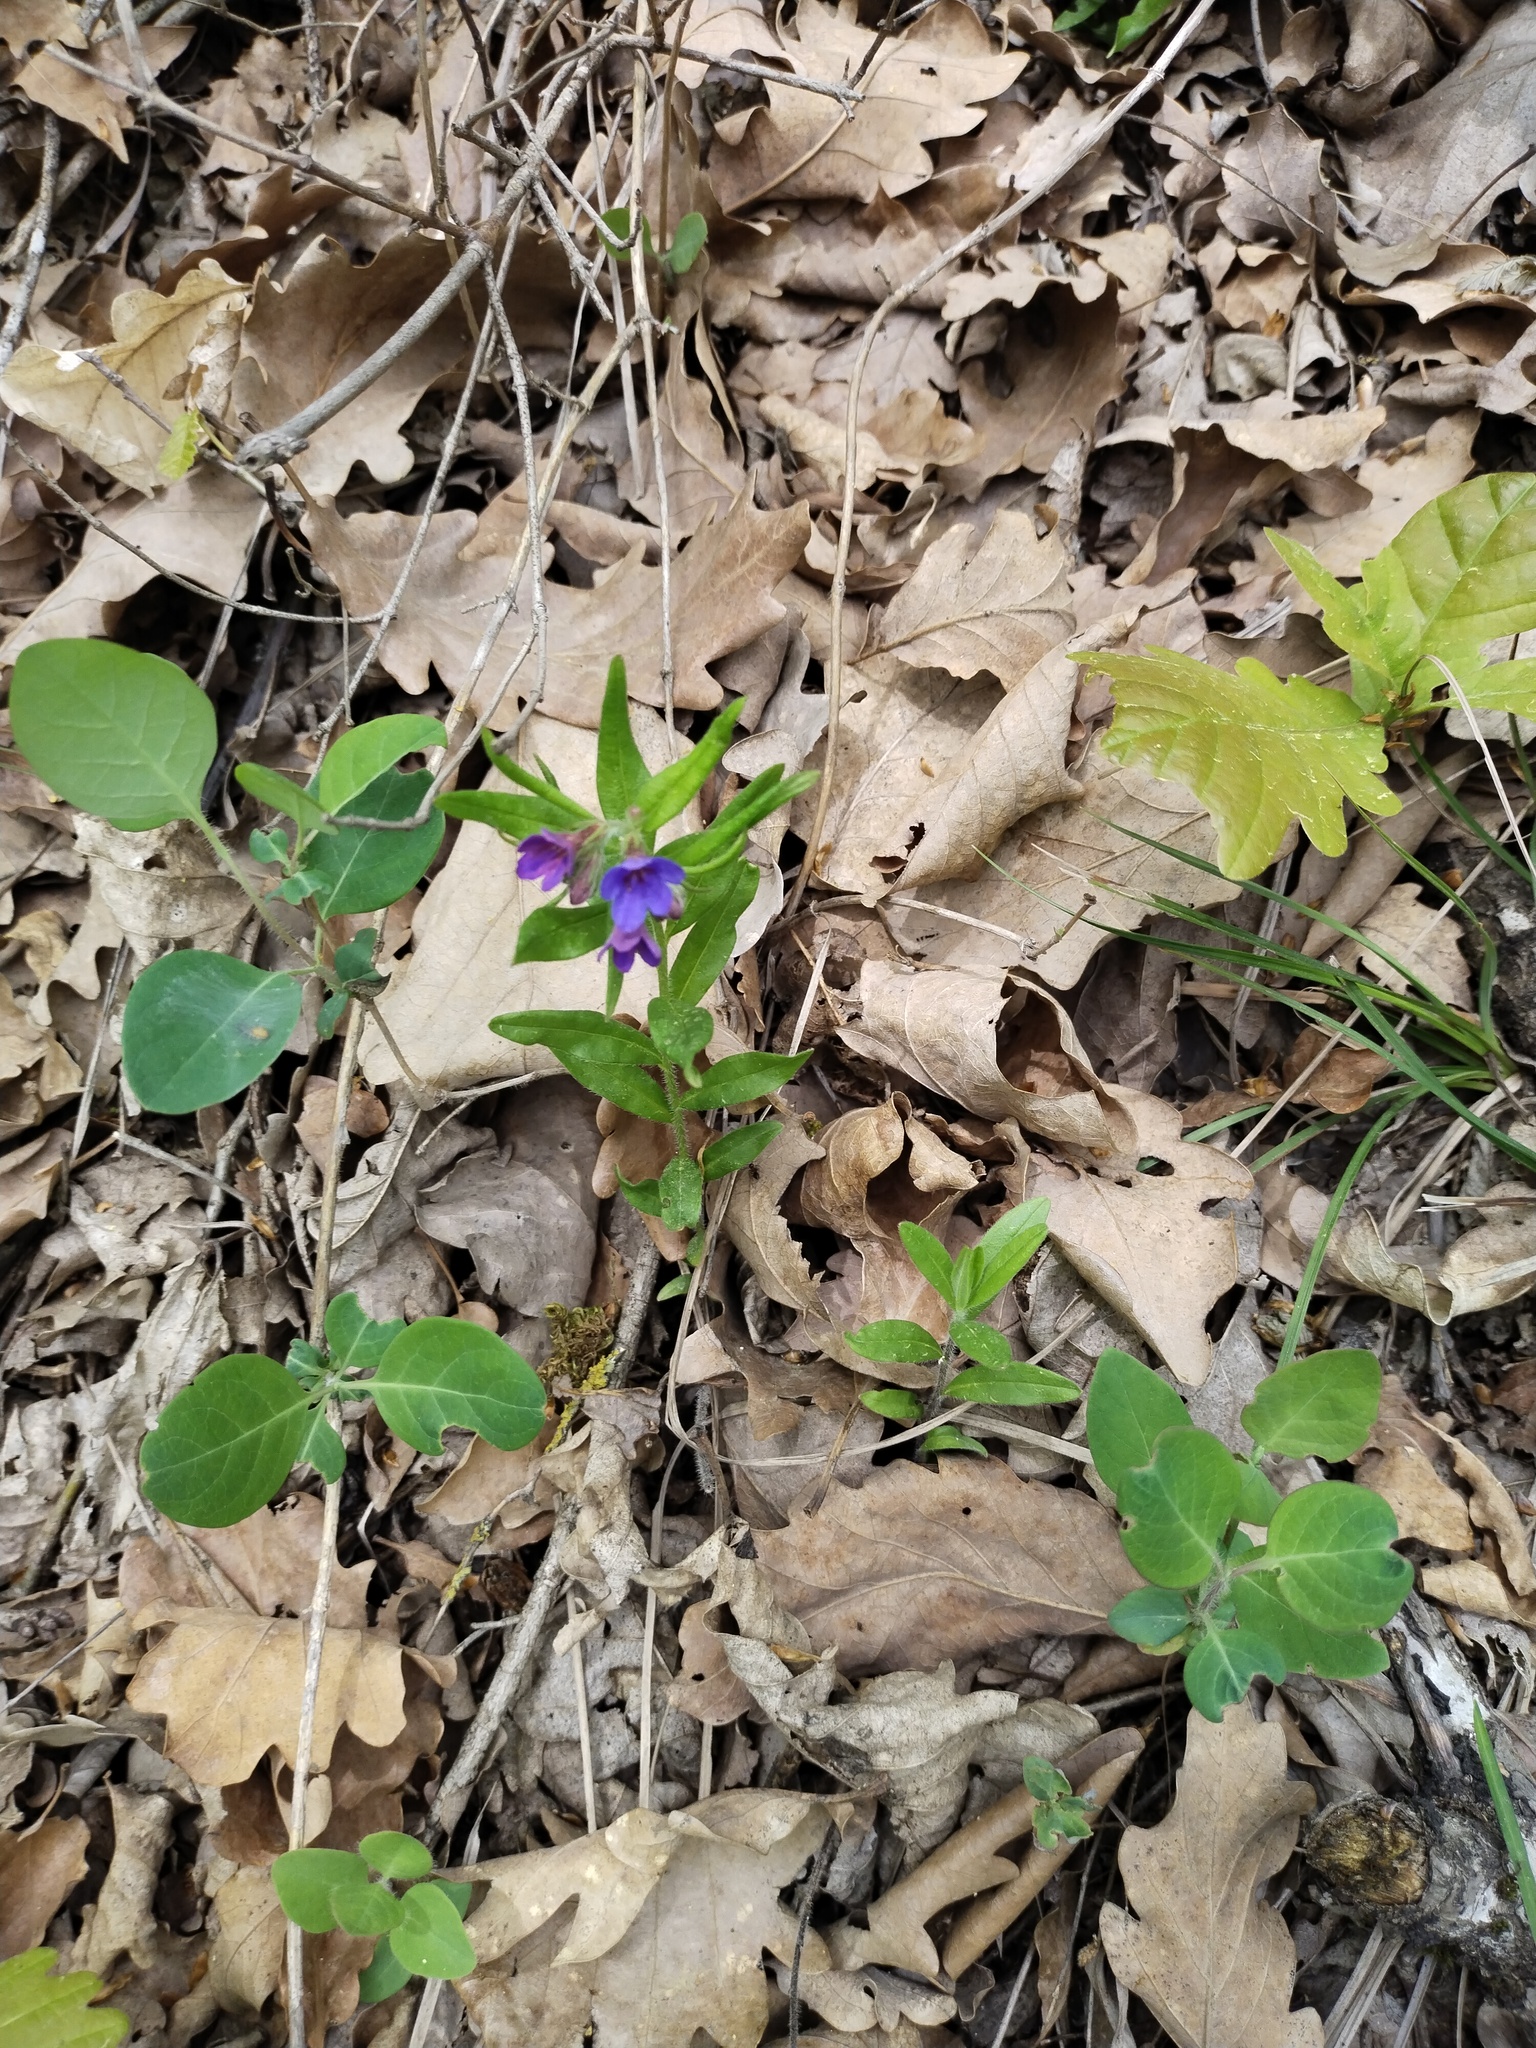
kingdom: Plantae
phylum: Tracheophyta
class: Magnoliopsida
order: Boraginales
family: Boraginaceae
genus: Aegonychon
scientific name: Aegonychon purpurocaeruleum
